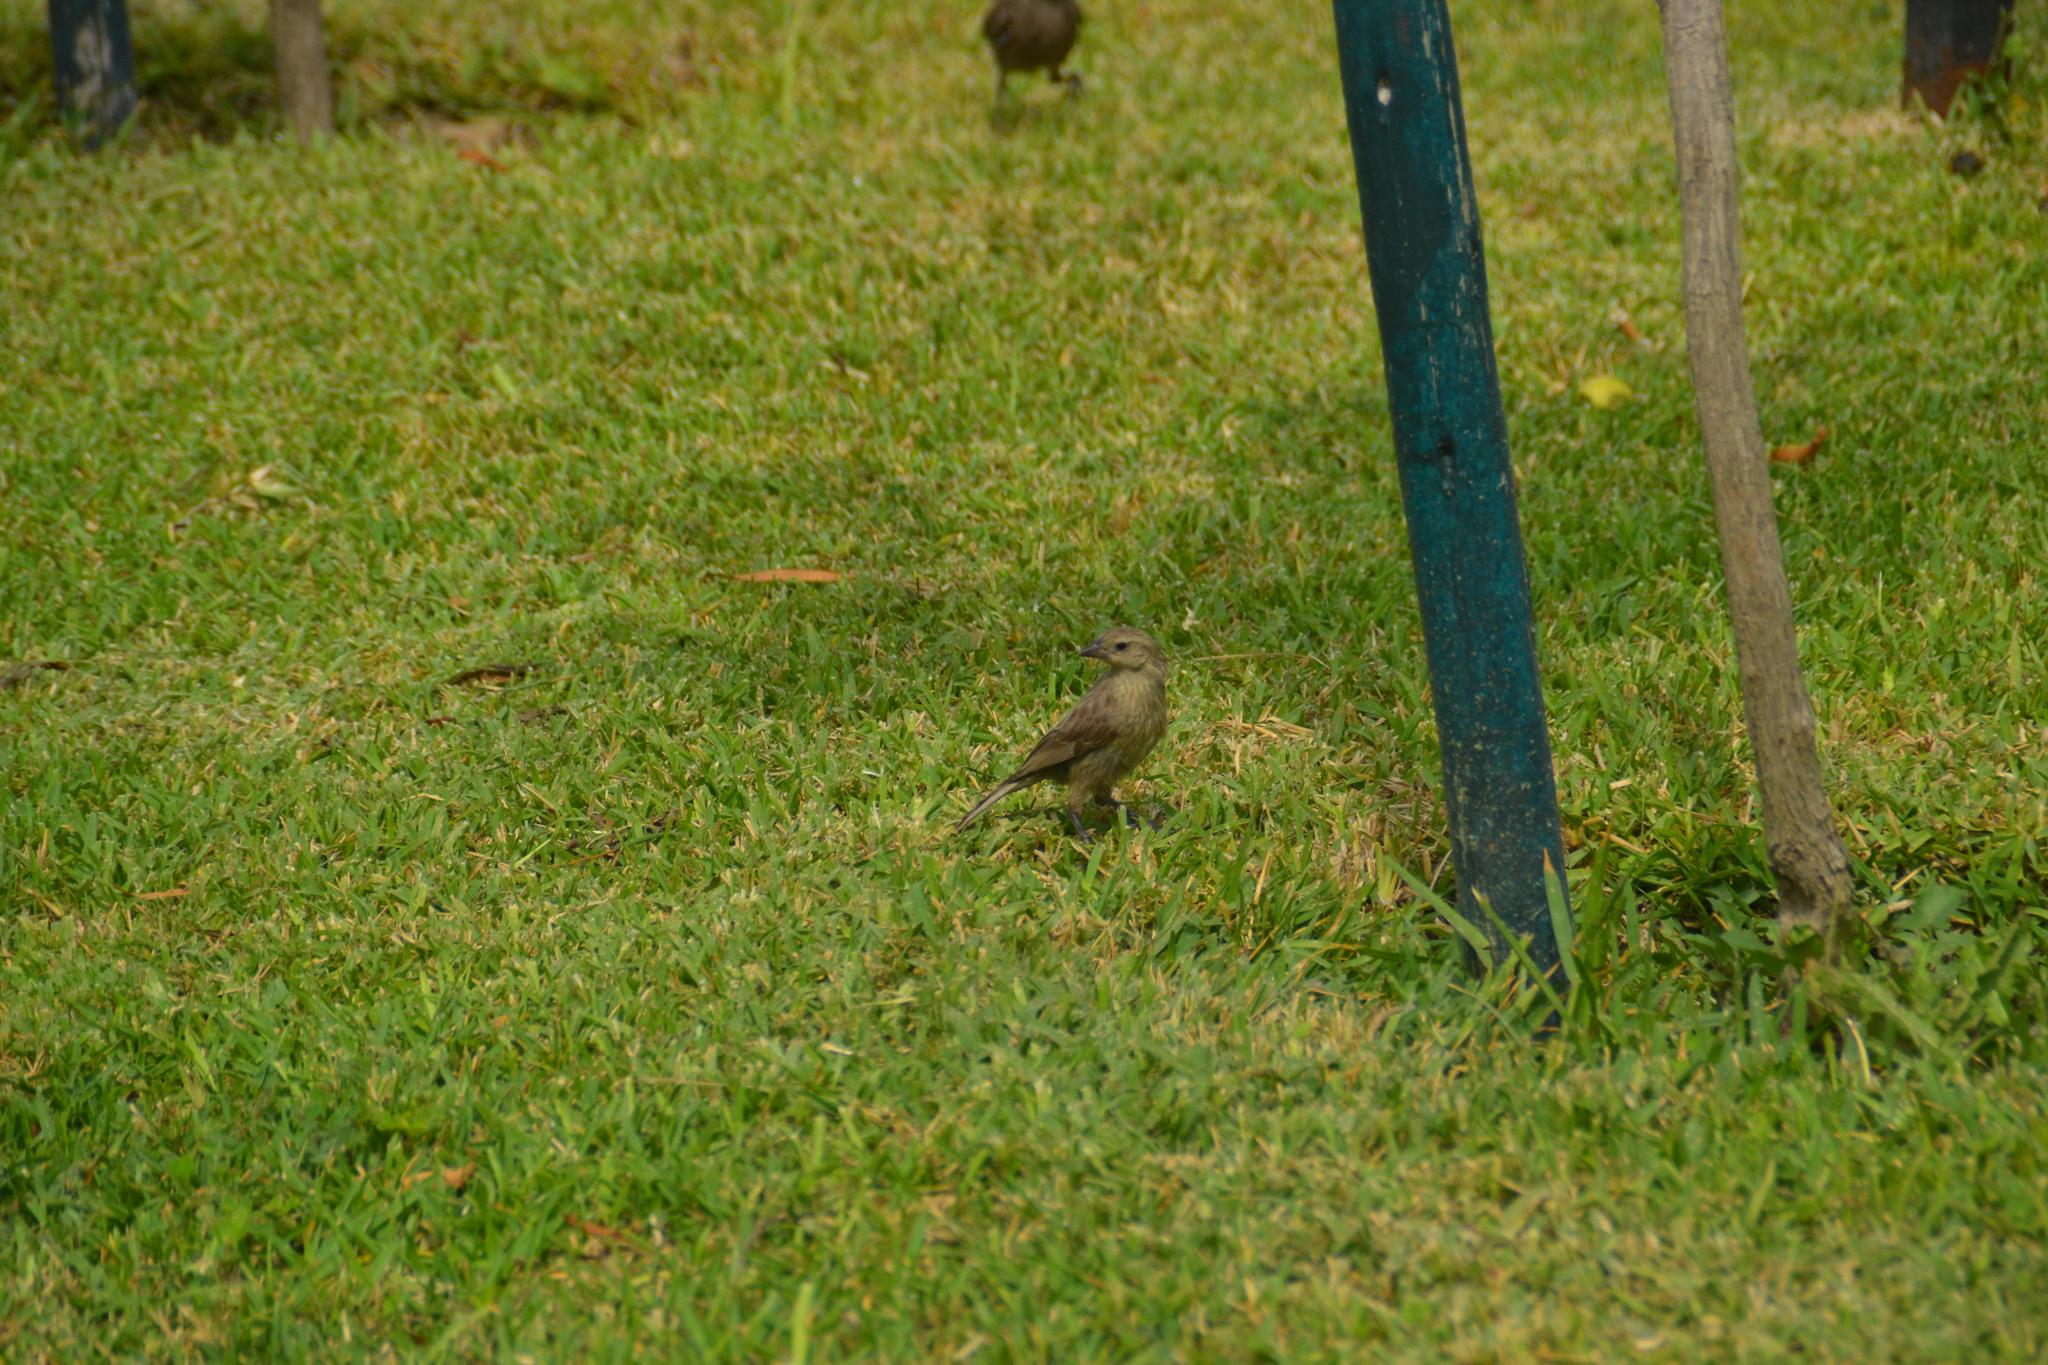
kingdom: Animalia
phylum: Chordata
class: Aves
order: Passeriformes
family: Icteridae
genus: Molothrus
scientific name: Molothrus bonariensis
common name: Shiny cowbird
